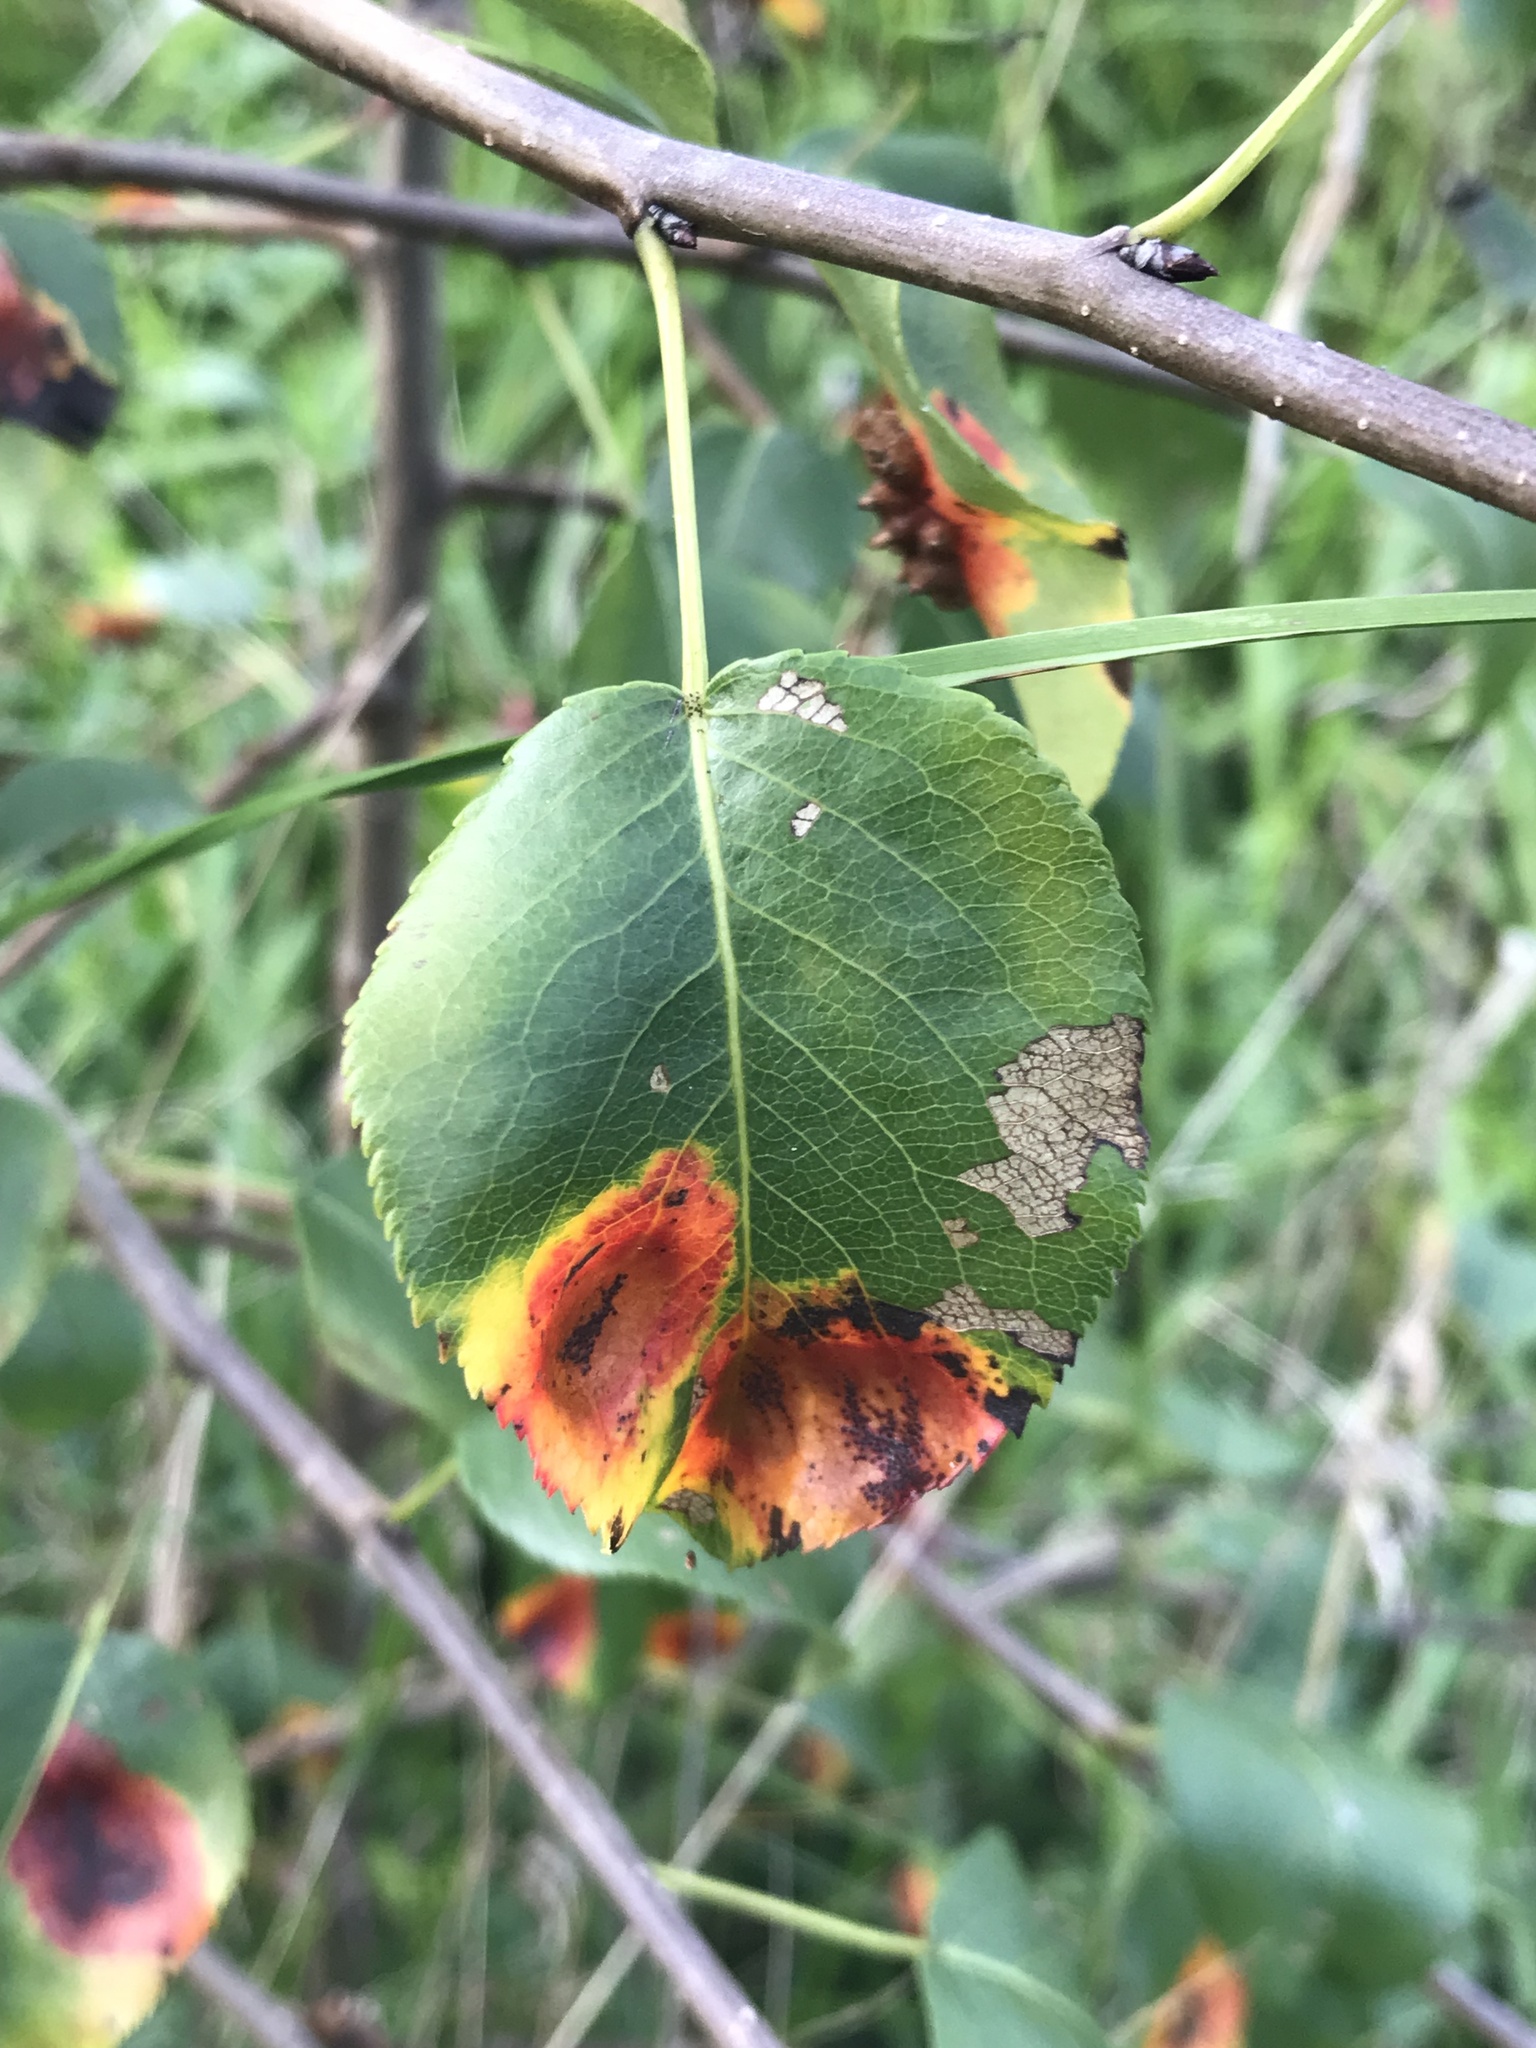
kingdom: Fungi
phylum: Basidiomycota
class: Pucciniomycetes
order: Pucciniales
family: Gymnosporangiaceae
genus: Gymnosporangium
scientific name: Gymnosporangium sabinae
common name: Pear trellis rust fungus
